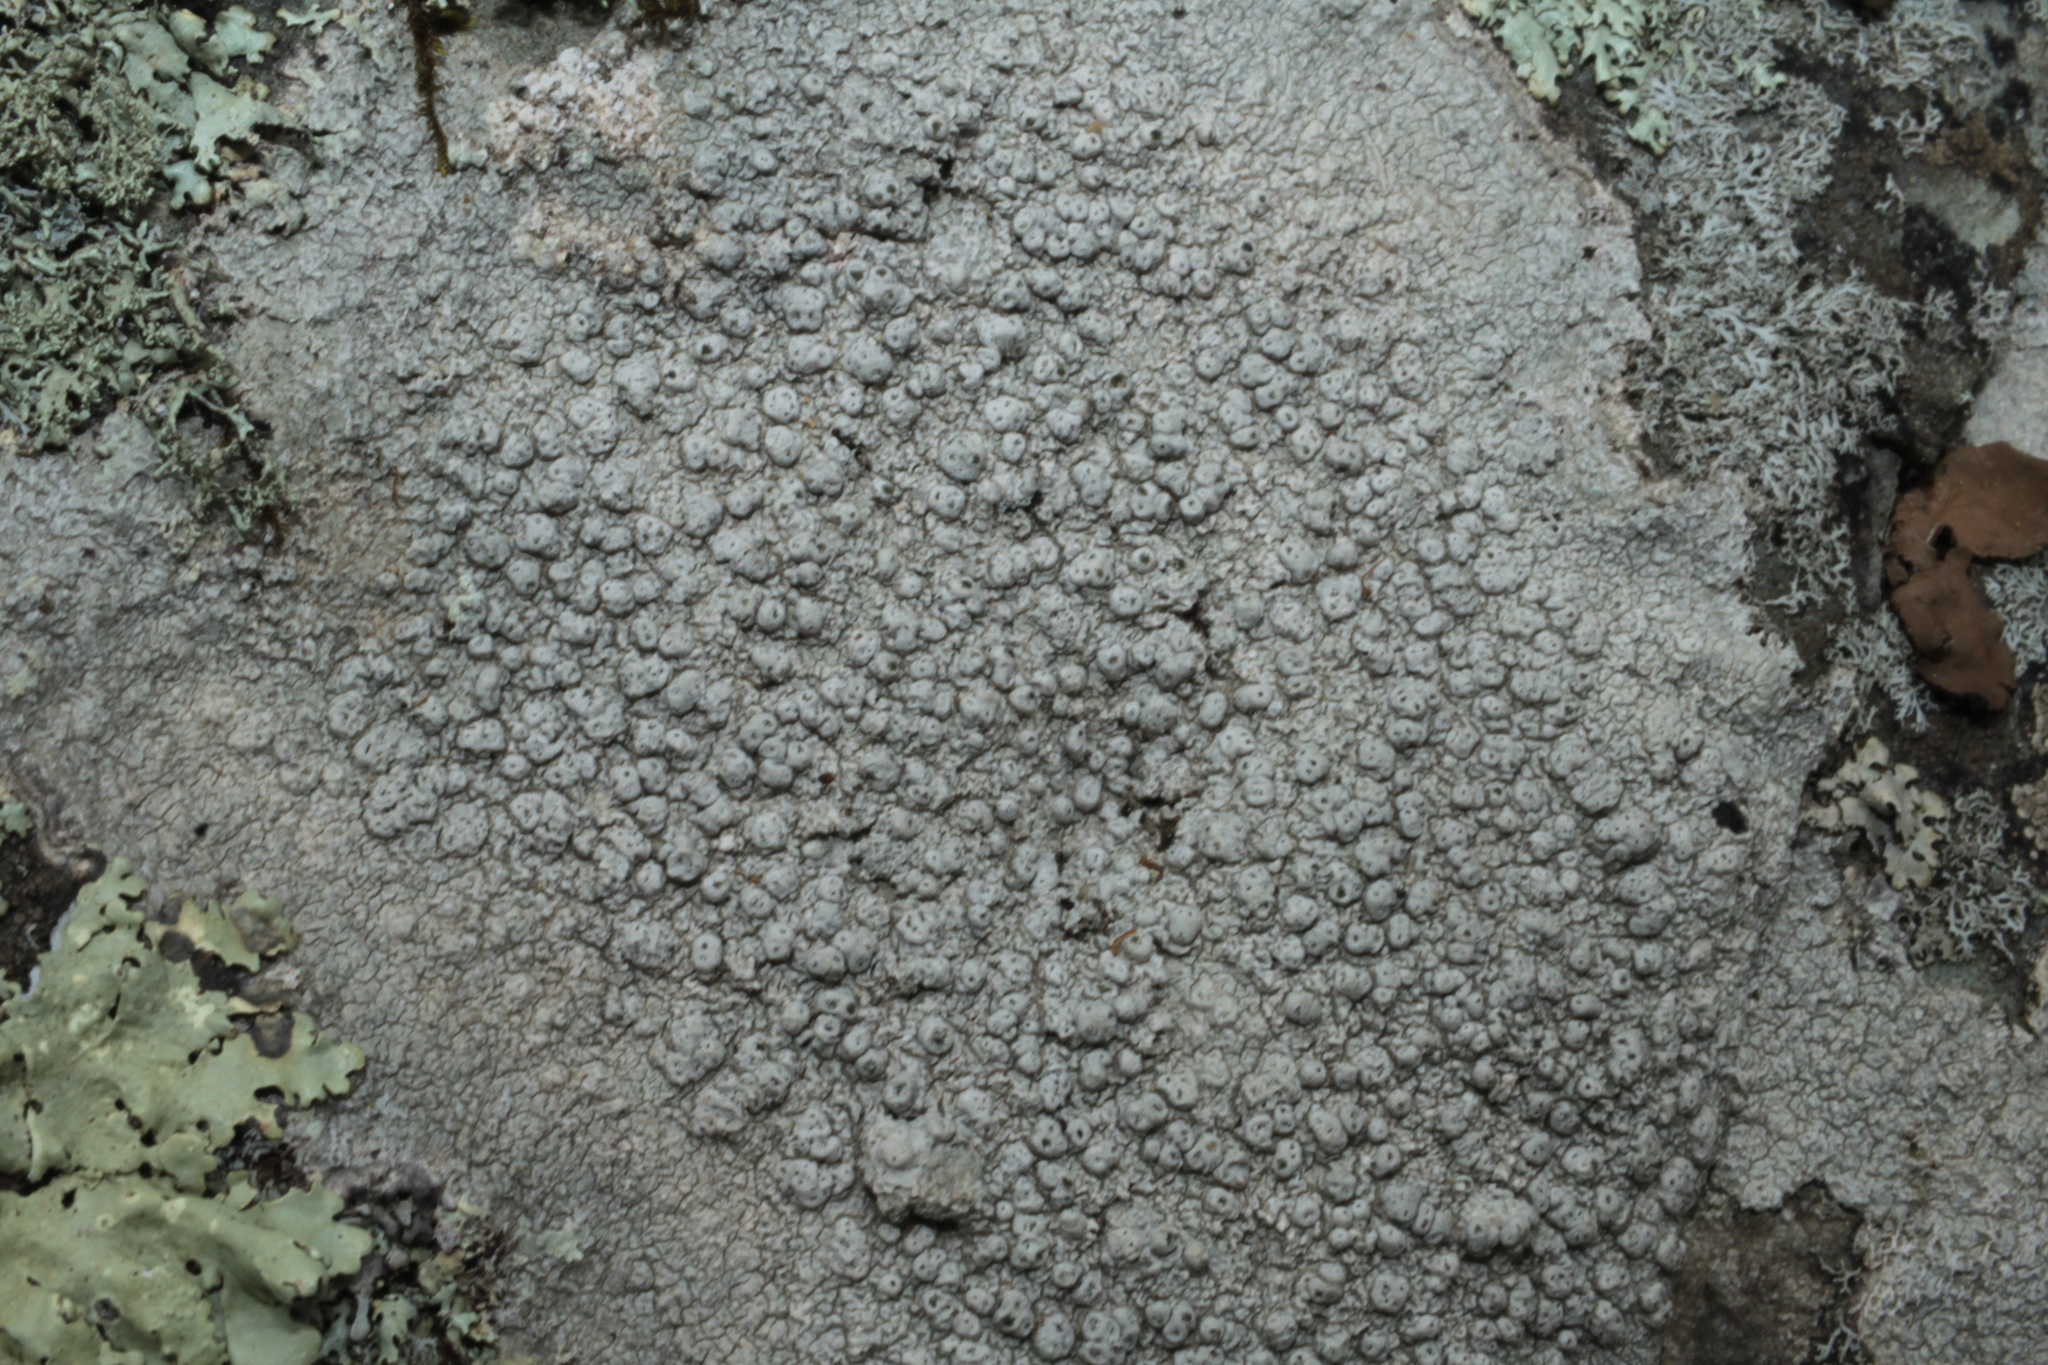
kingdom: Fungi
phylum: Ascomycota
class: Lecanoromycetes
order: Pertusariales
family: Pertusariaceae
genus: Pertusaria
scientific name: Pertusaria plittiana
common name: Rock wart lichen
